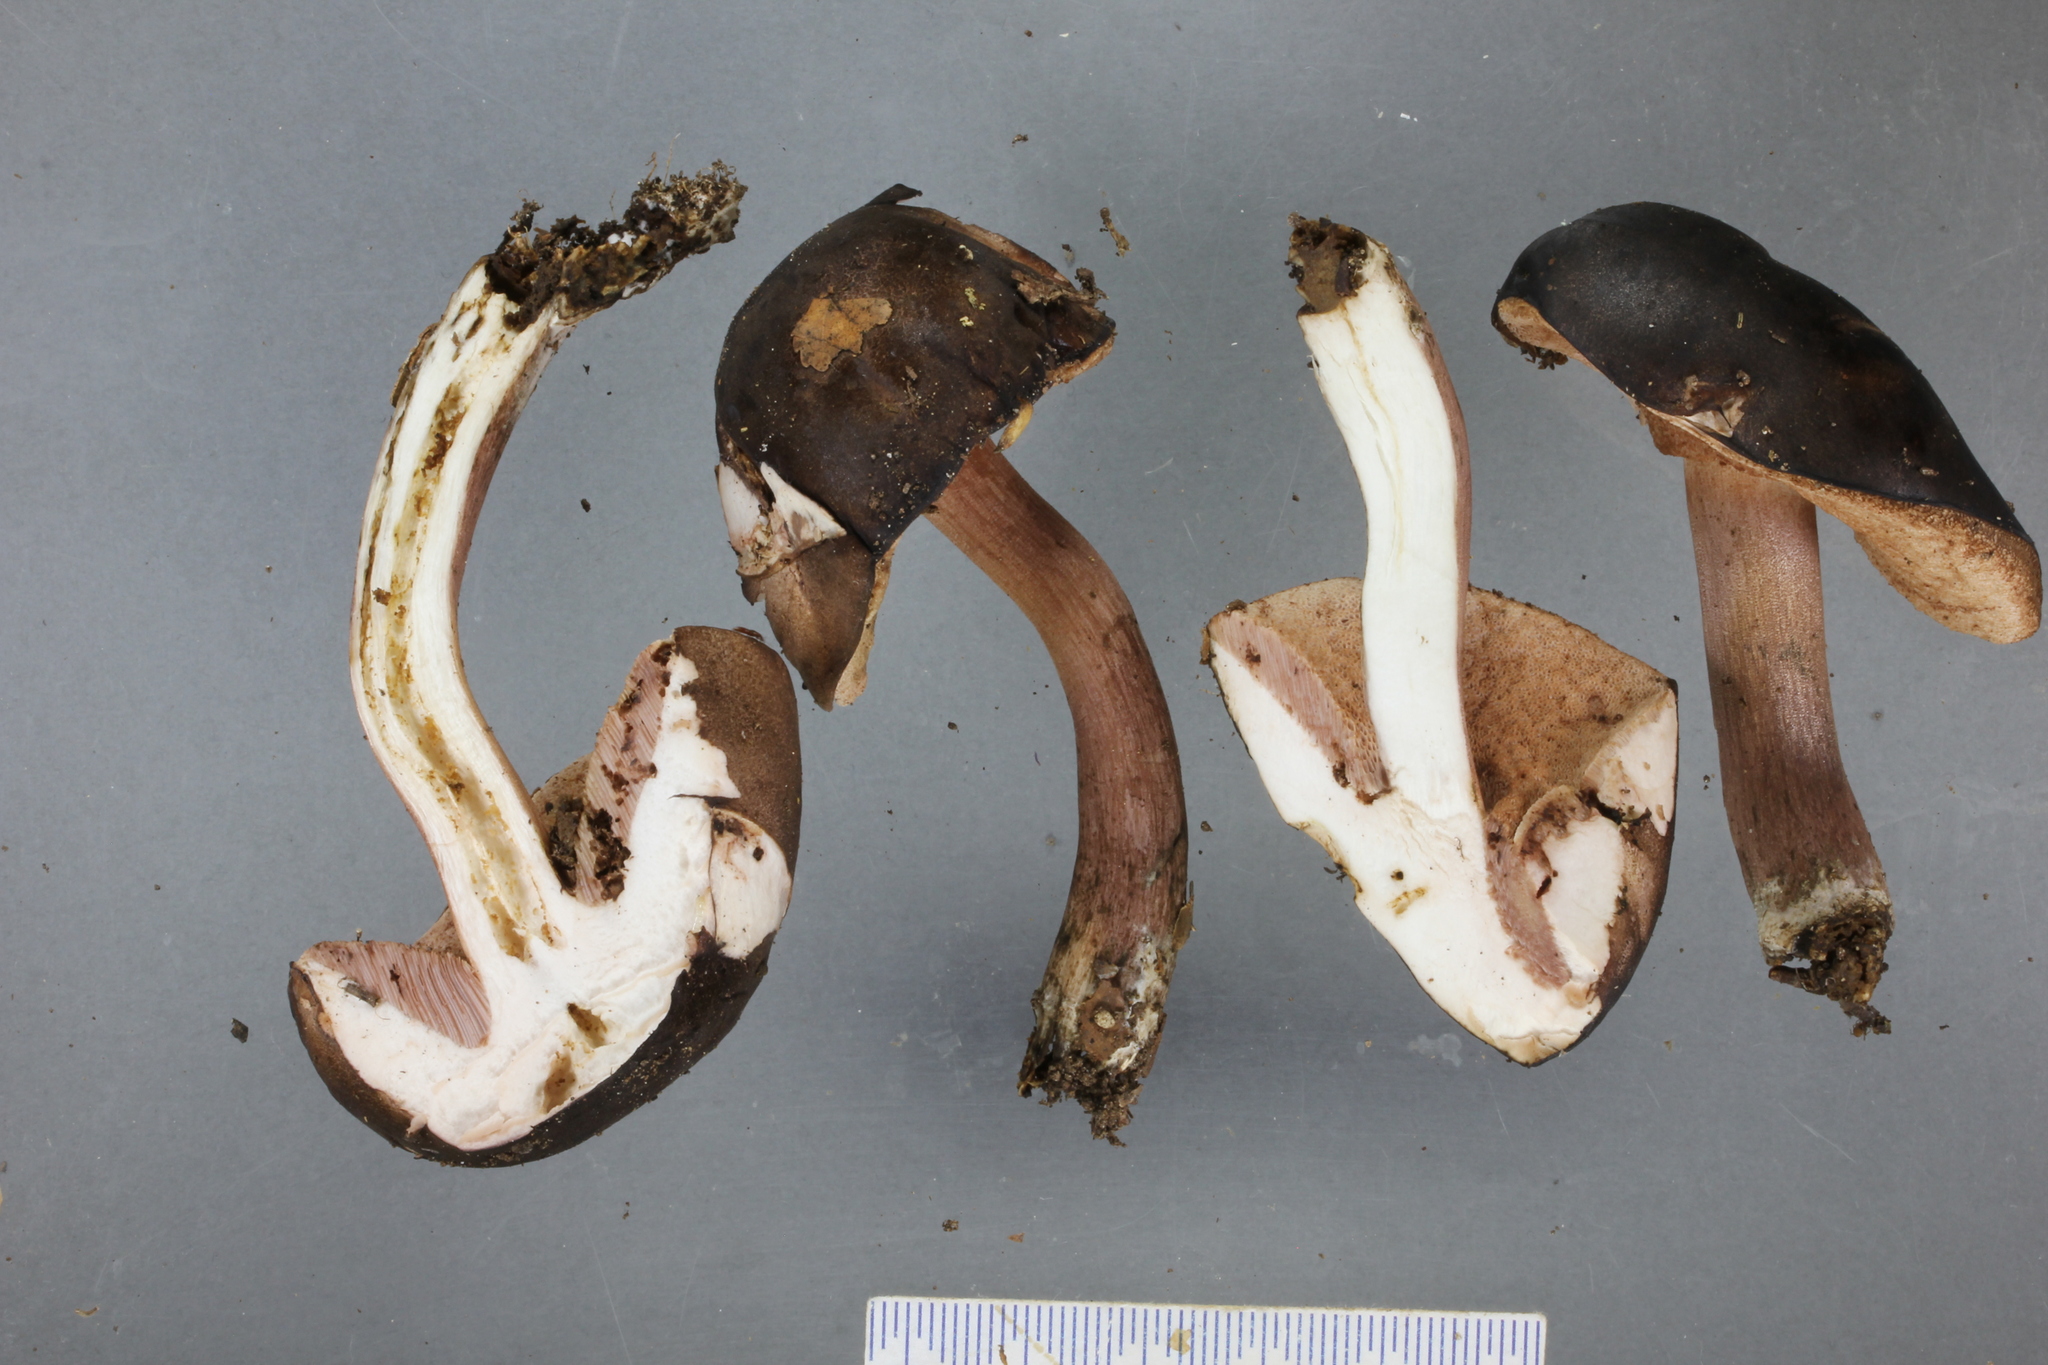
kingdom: Fungi
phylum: Basidiomycota
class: Agaricomycetes
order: Boletales
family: Boletaceae
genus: Porphyrellus
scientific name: Porphyrellus formosus
